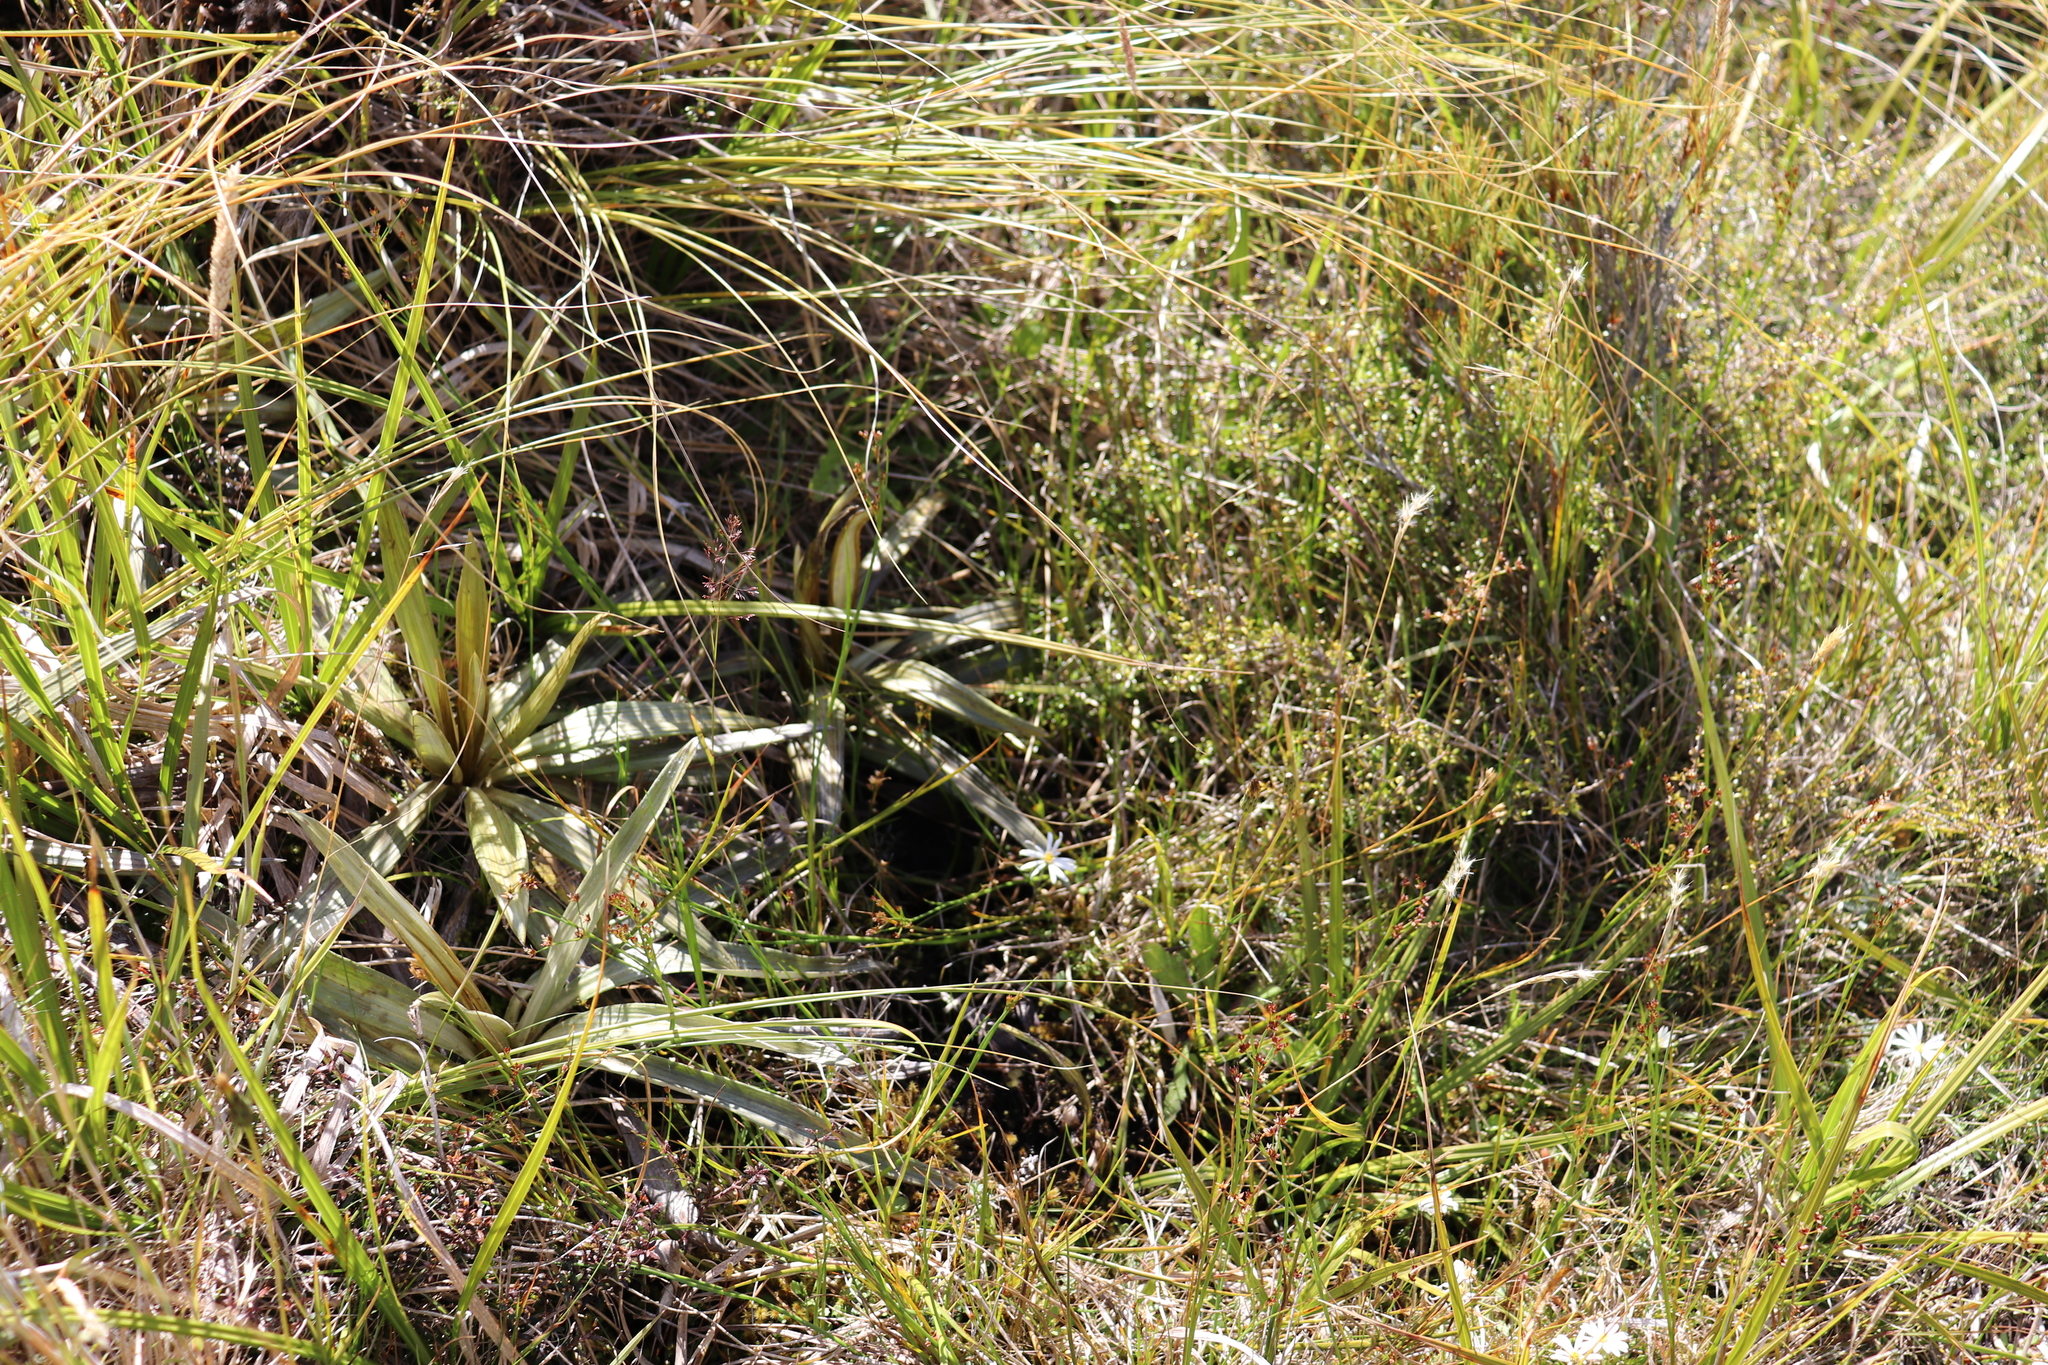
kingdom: Plantae
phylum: Tracheophyta
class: Magnoliopsida
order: Asterales
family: Asteraceae
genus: Celmisia
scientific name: Celmisia semicordata
